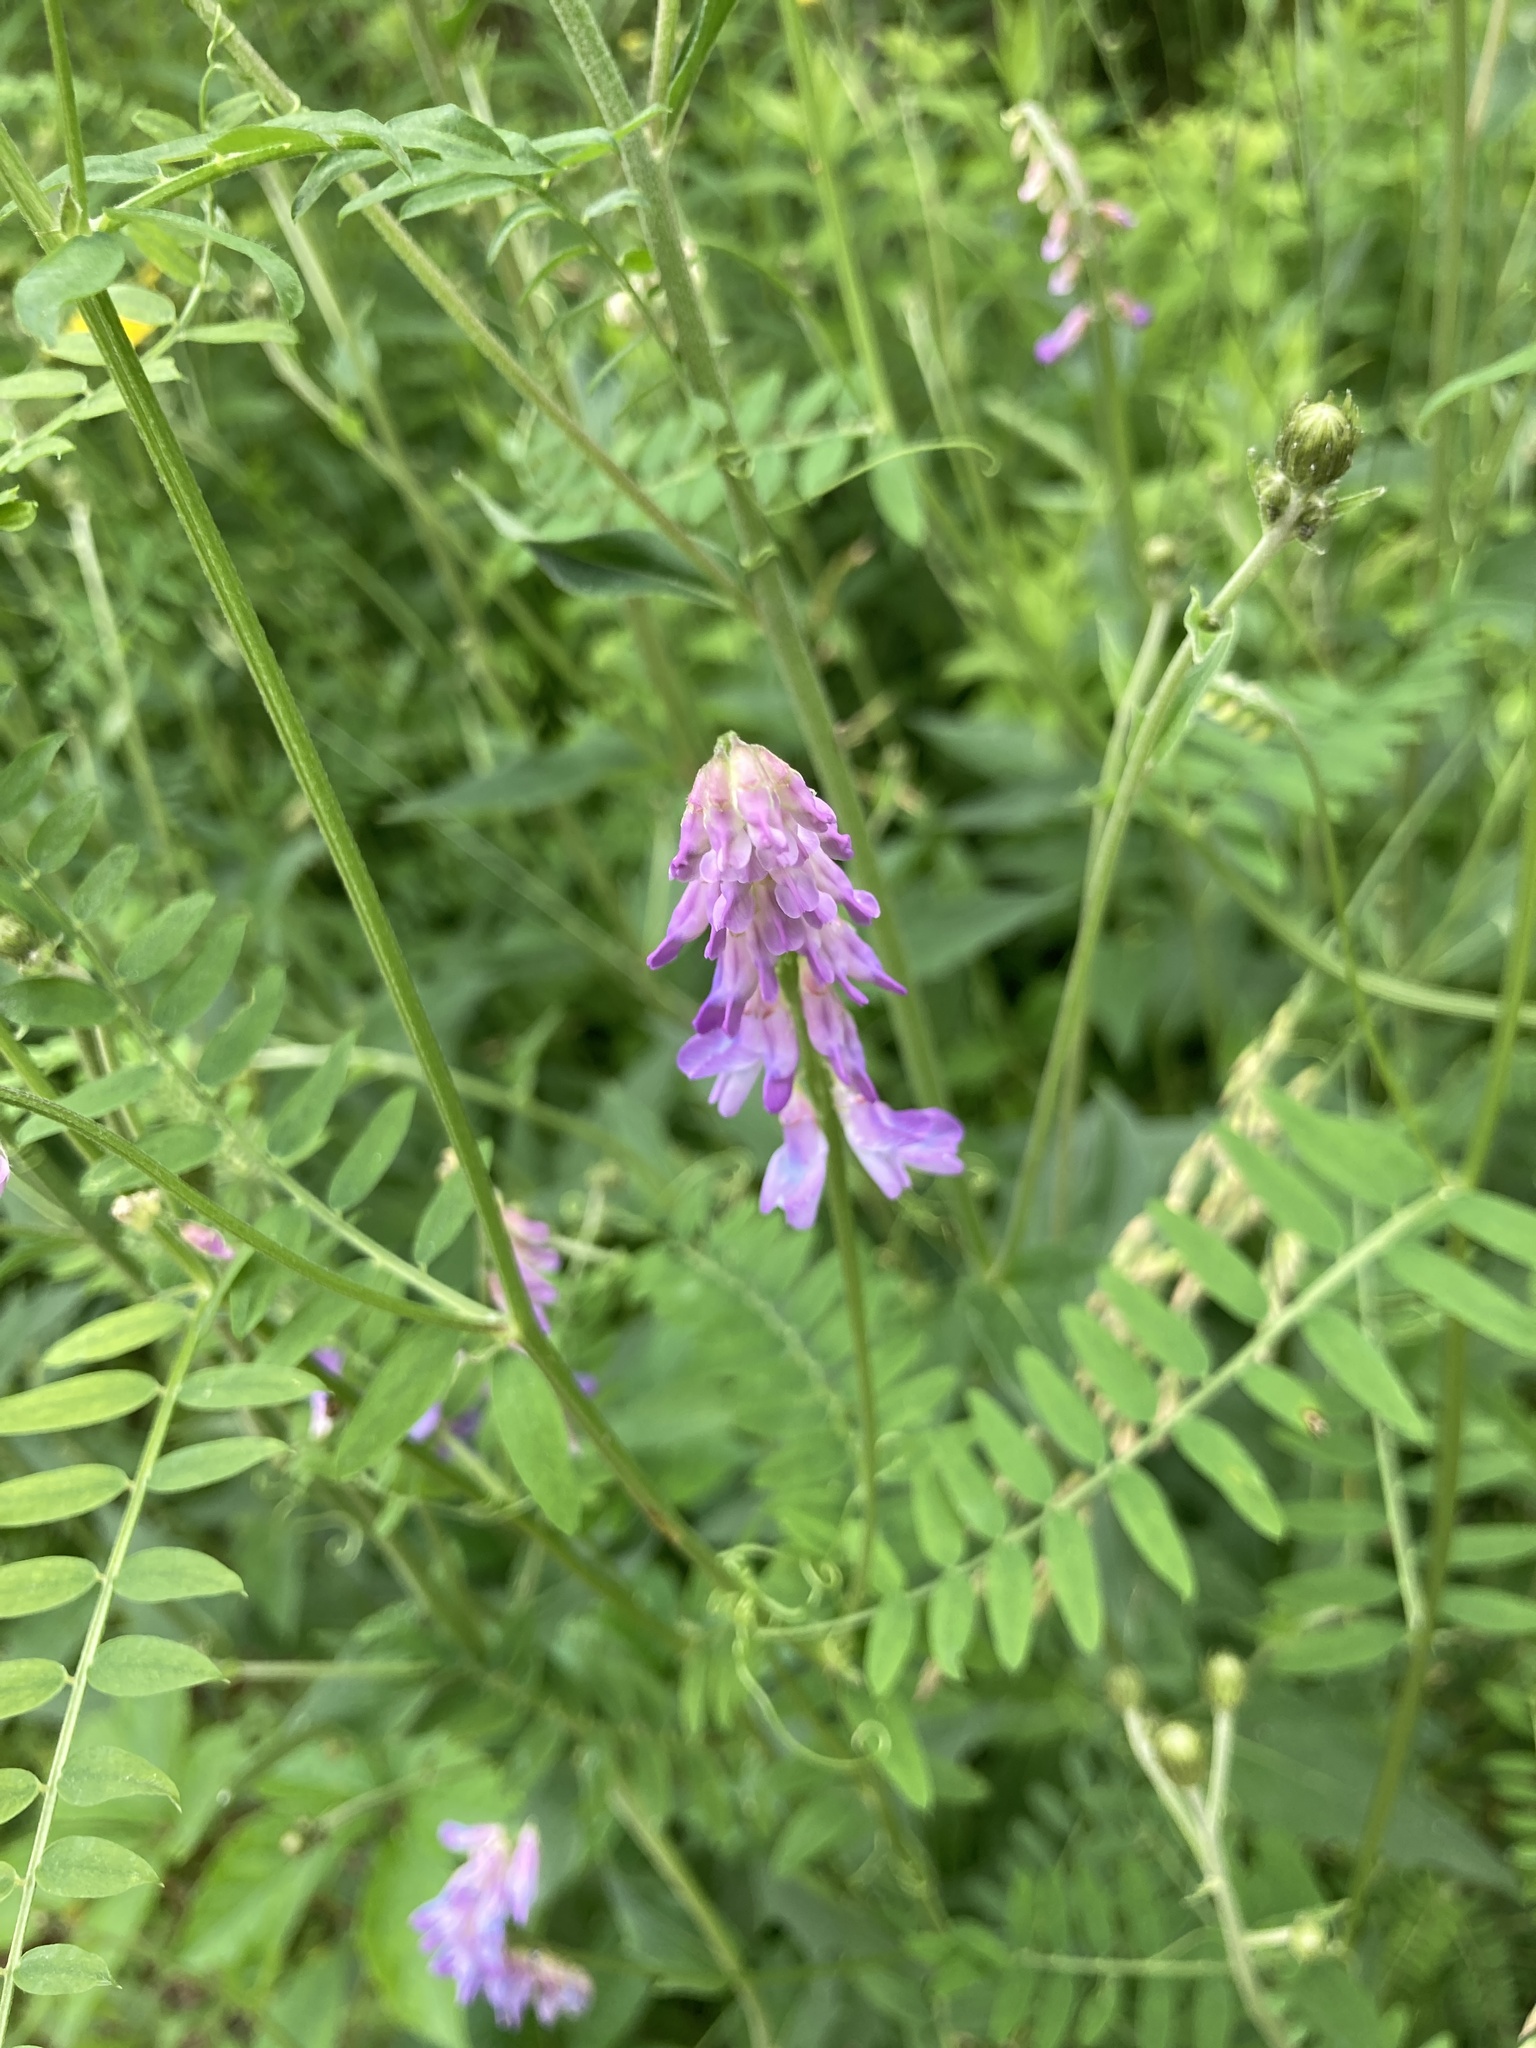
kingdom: Plantae
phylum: Tracheophyta
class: Magnoliopsida
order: Fabales
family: Fabaceae
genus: Vicia
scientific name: Vicia cracca
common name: Bird vetch
